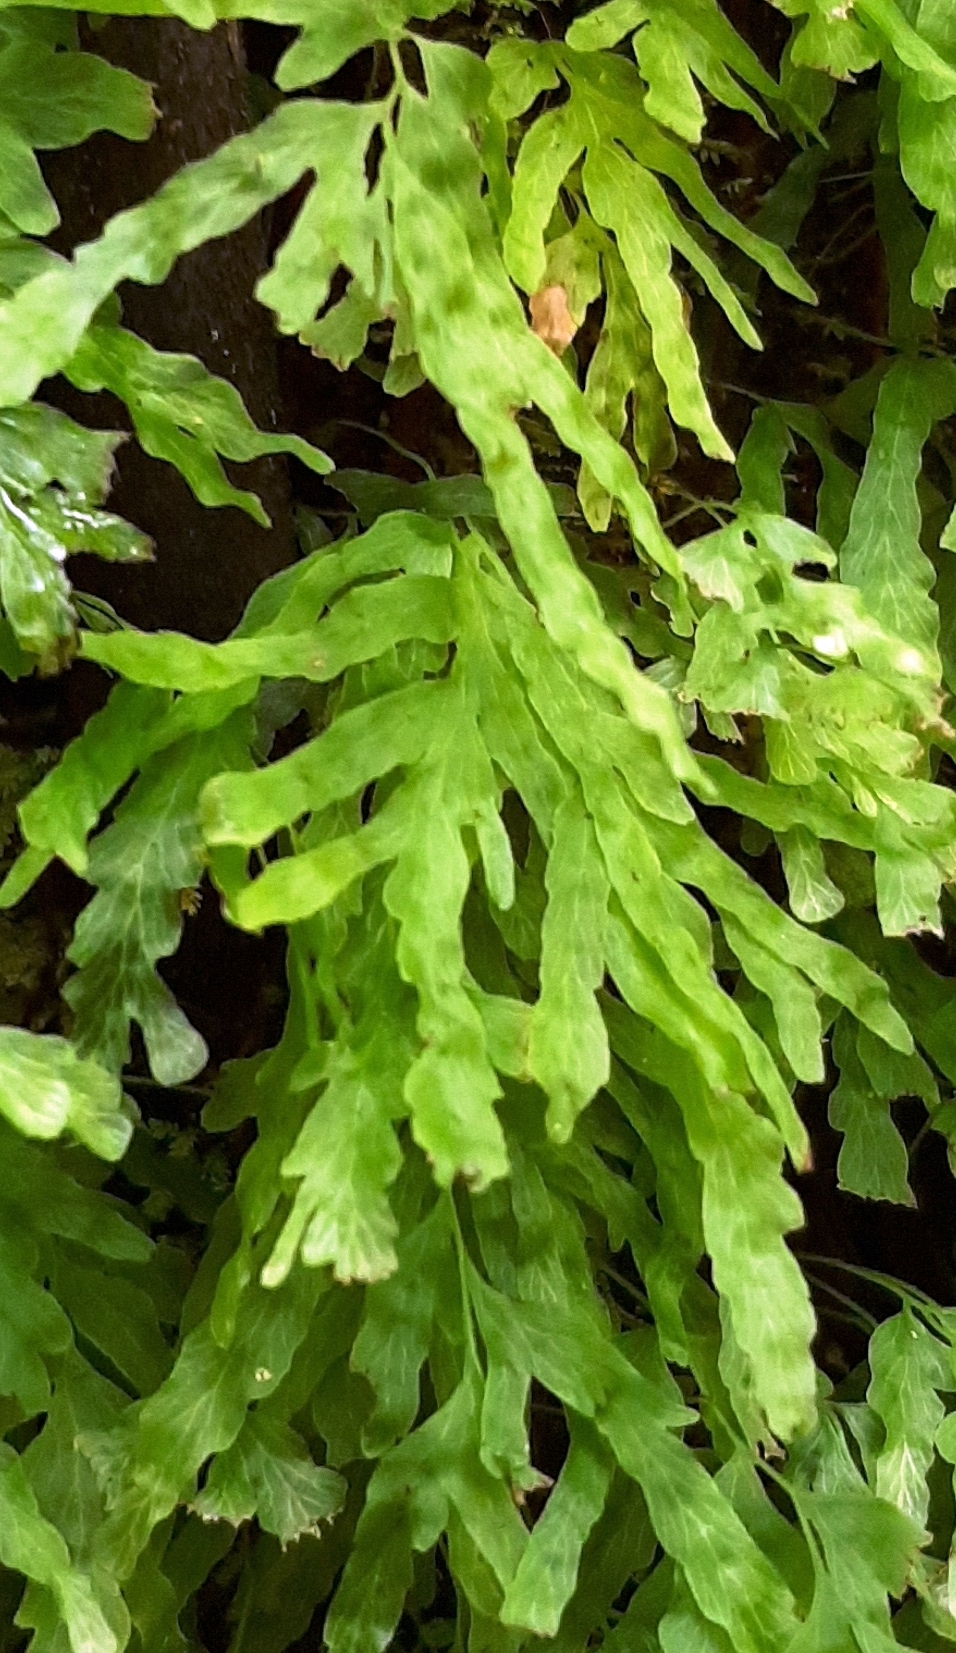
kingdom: Plantae
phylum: Tracheophyta
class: Polypodiopsida
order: Hymenophyllales
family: Hymenophyllaceae
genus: Polyphlebium
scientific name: Polyphlebium venosum
